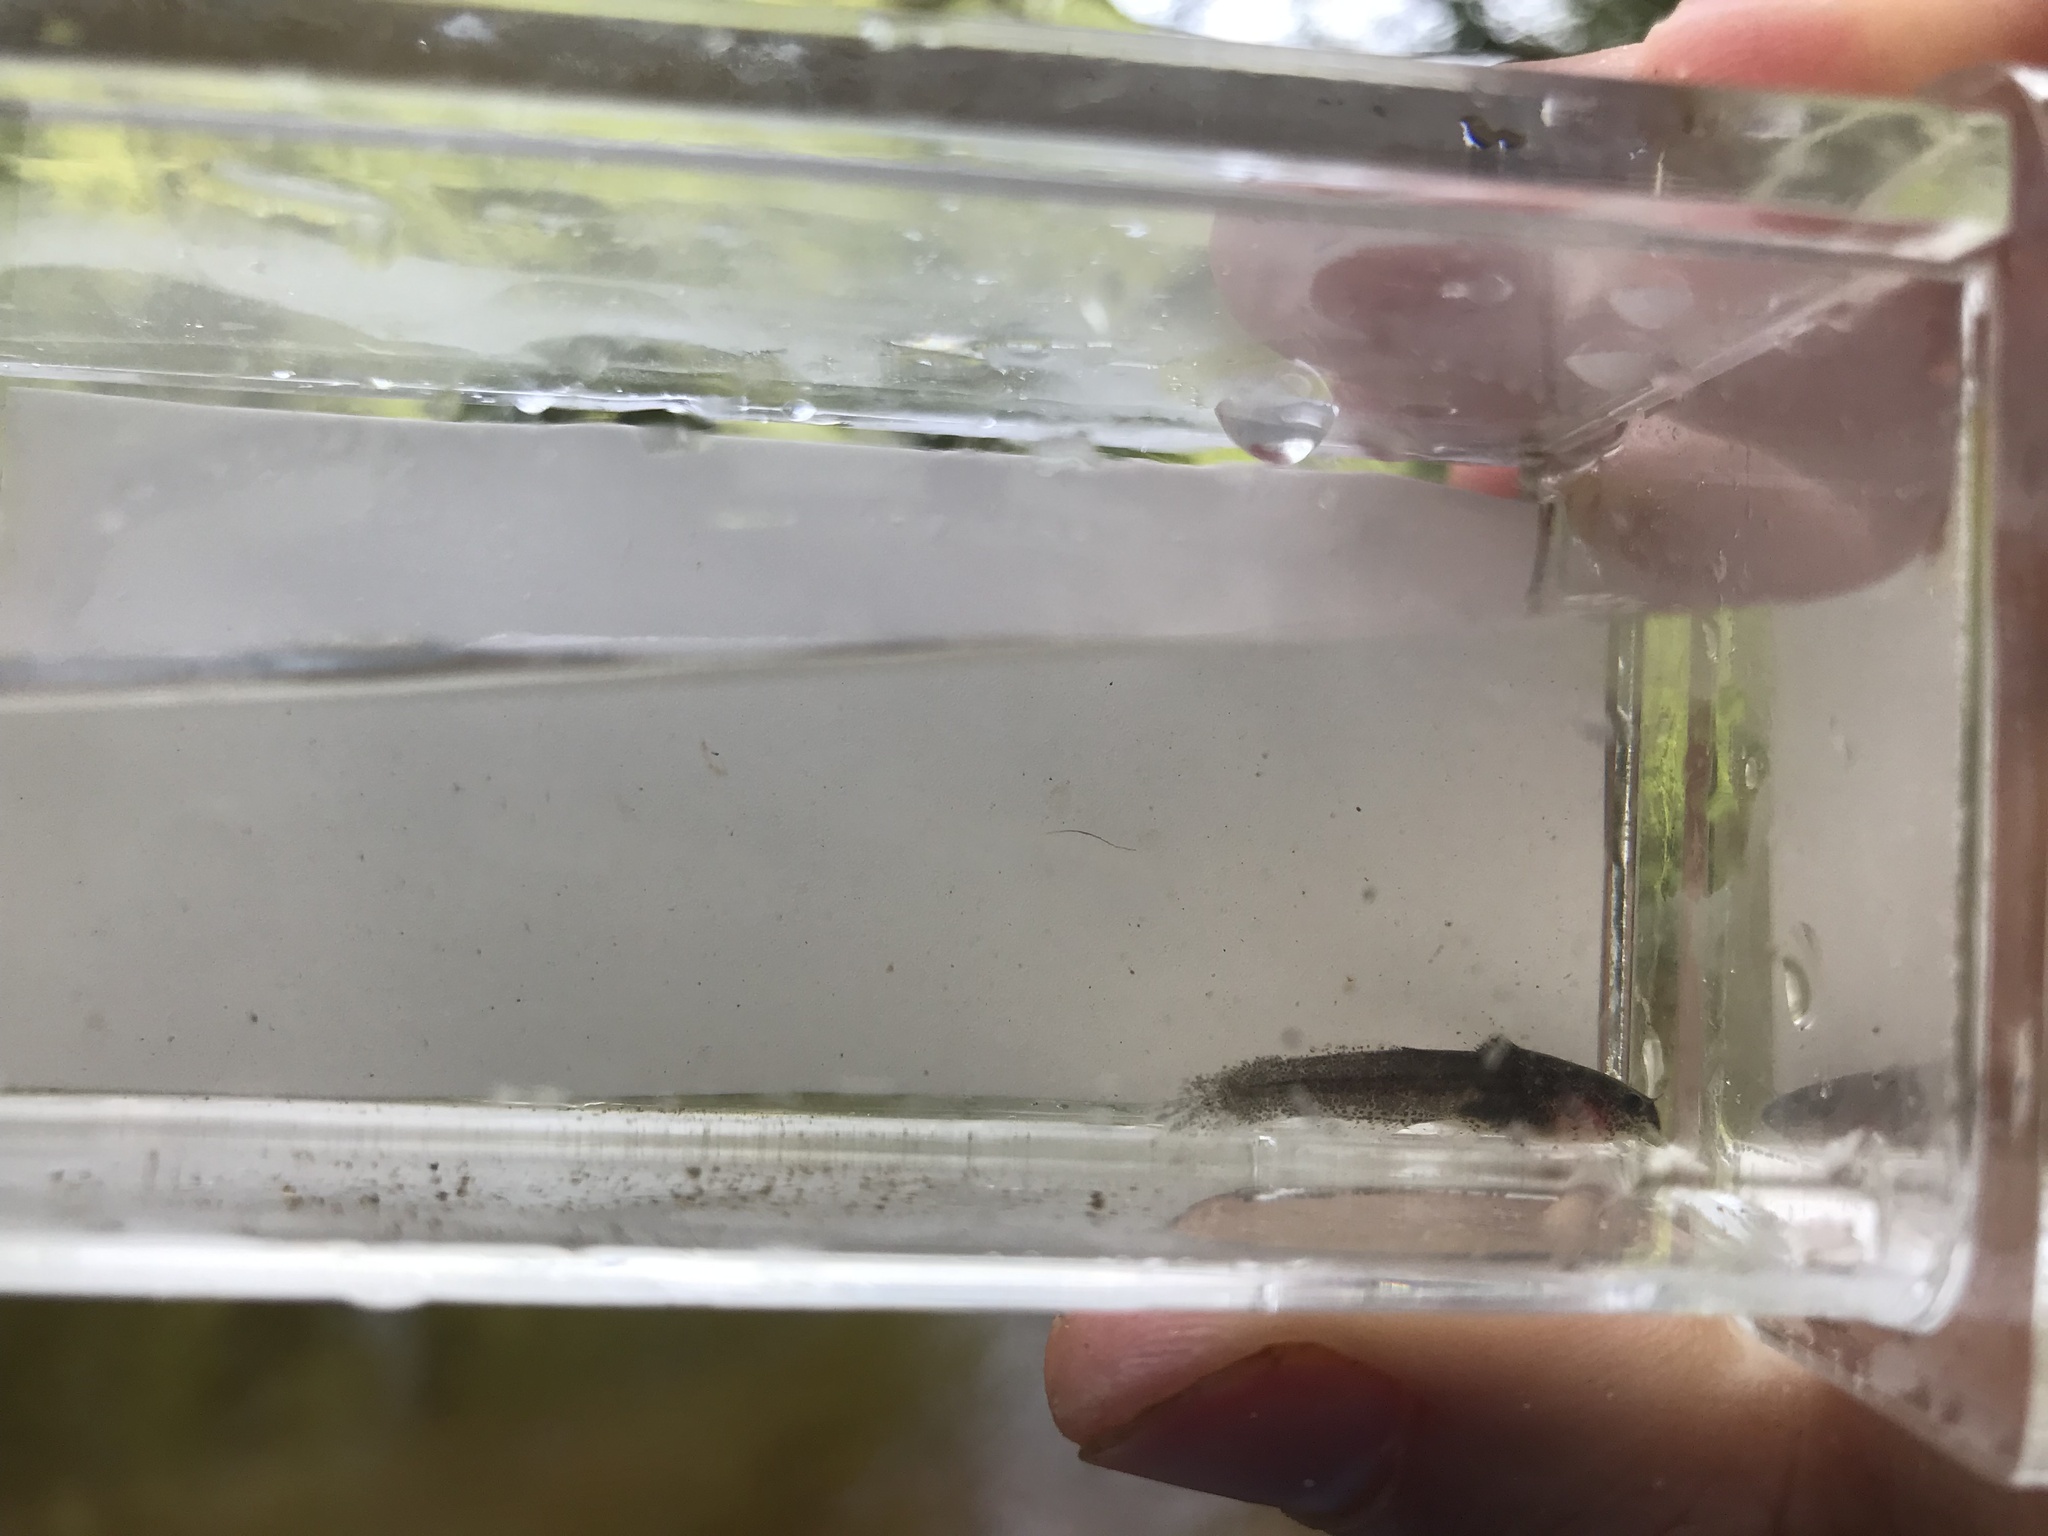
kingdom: Animalia
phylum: Chordata
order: Siluriformes
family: Ictaluridae
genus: Noturus
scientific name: Noturus leptacanthus
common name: Speckled madtom
